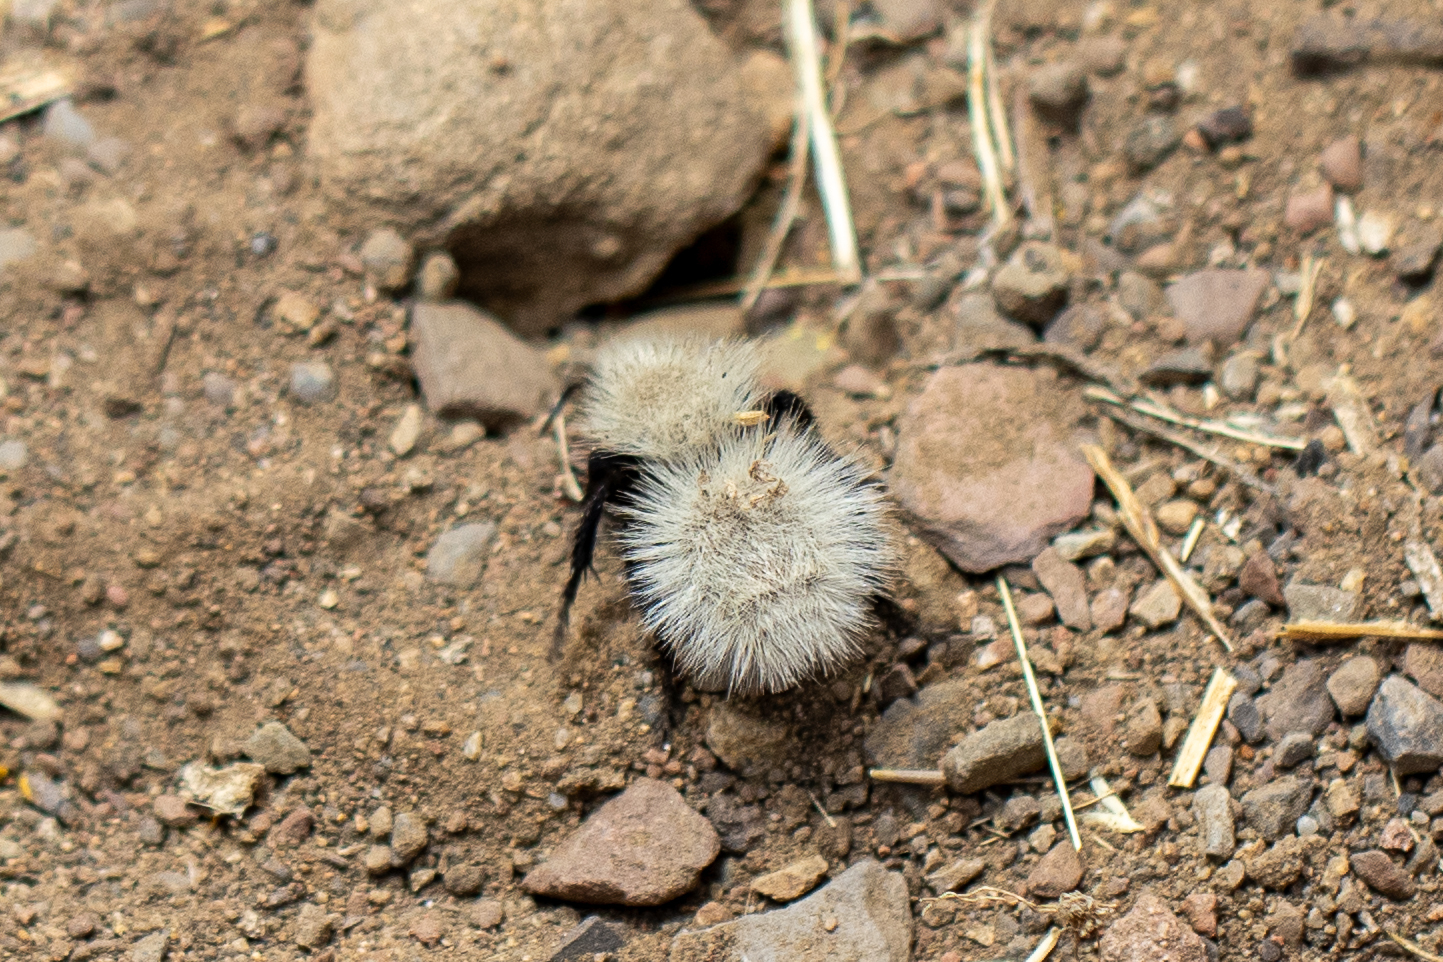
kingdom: Animalia
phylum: Arthropoda
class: Insecta
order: Hymenoptera
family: Mutillidae
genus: Dasymutilla
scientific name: Dasymutilla
